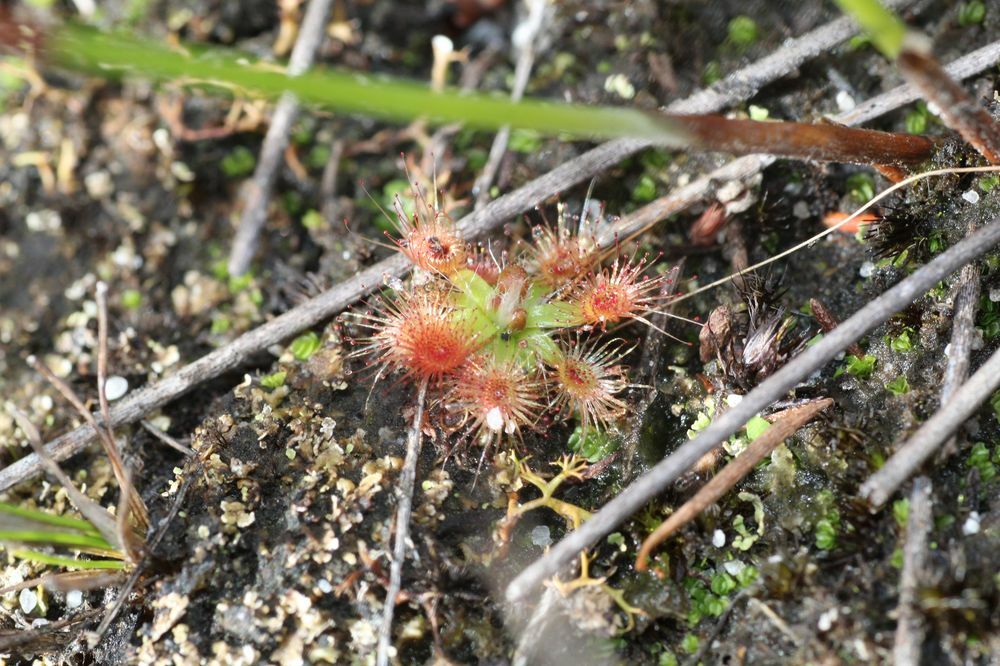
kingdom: Plantae
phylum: Tracheophyta
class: Magnoliopsida
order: Caryophyllales
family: Droseraceae
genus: Drosera
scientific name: Drosera pulchella
